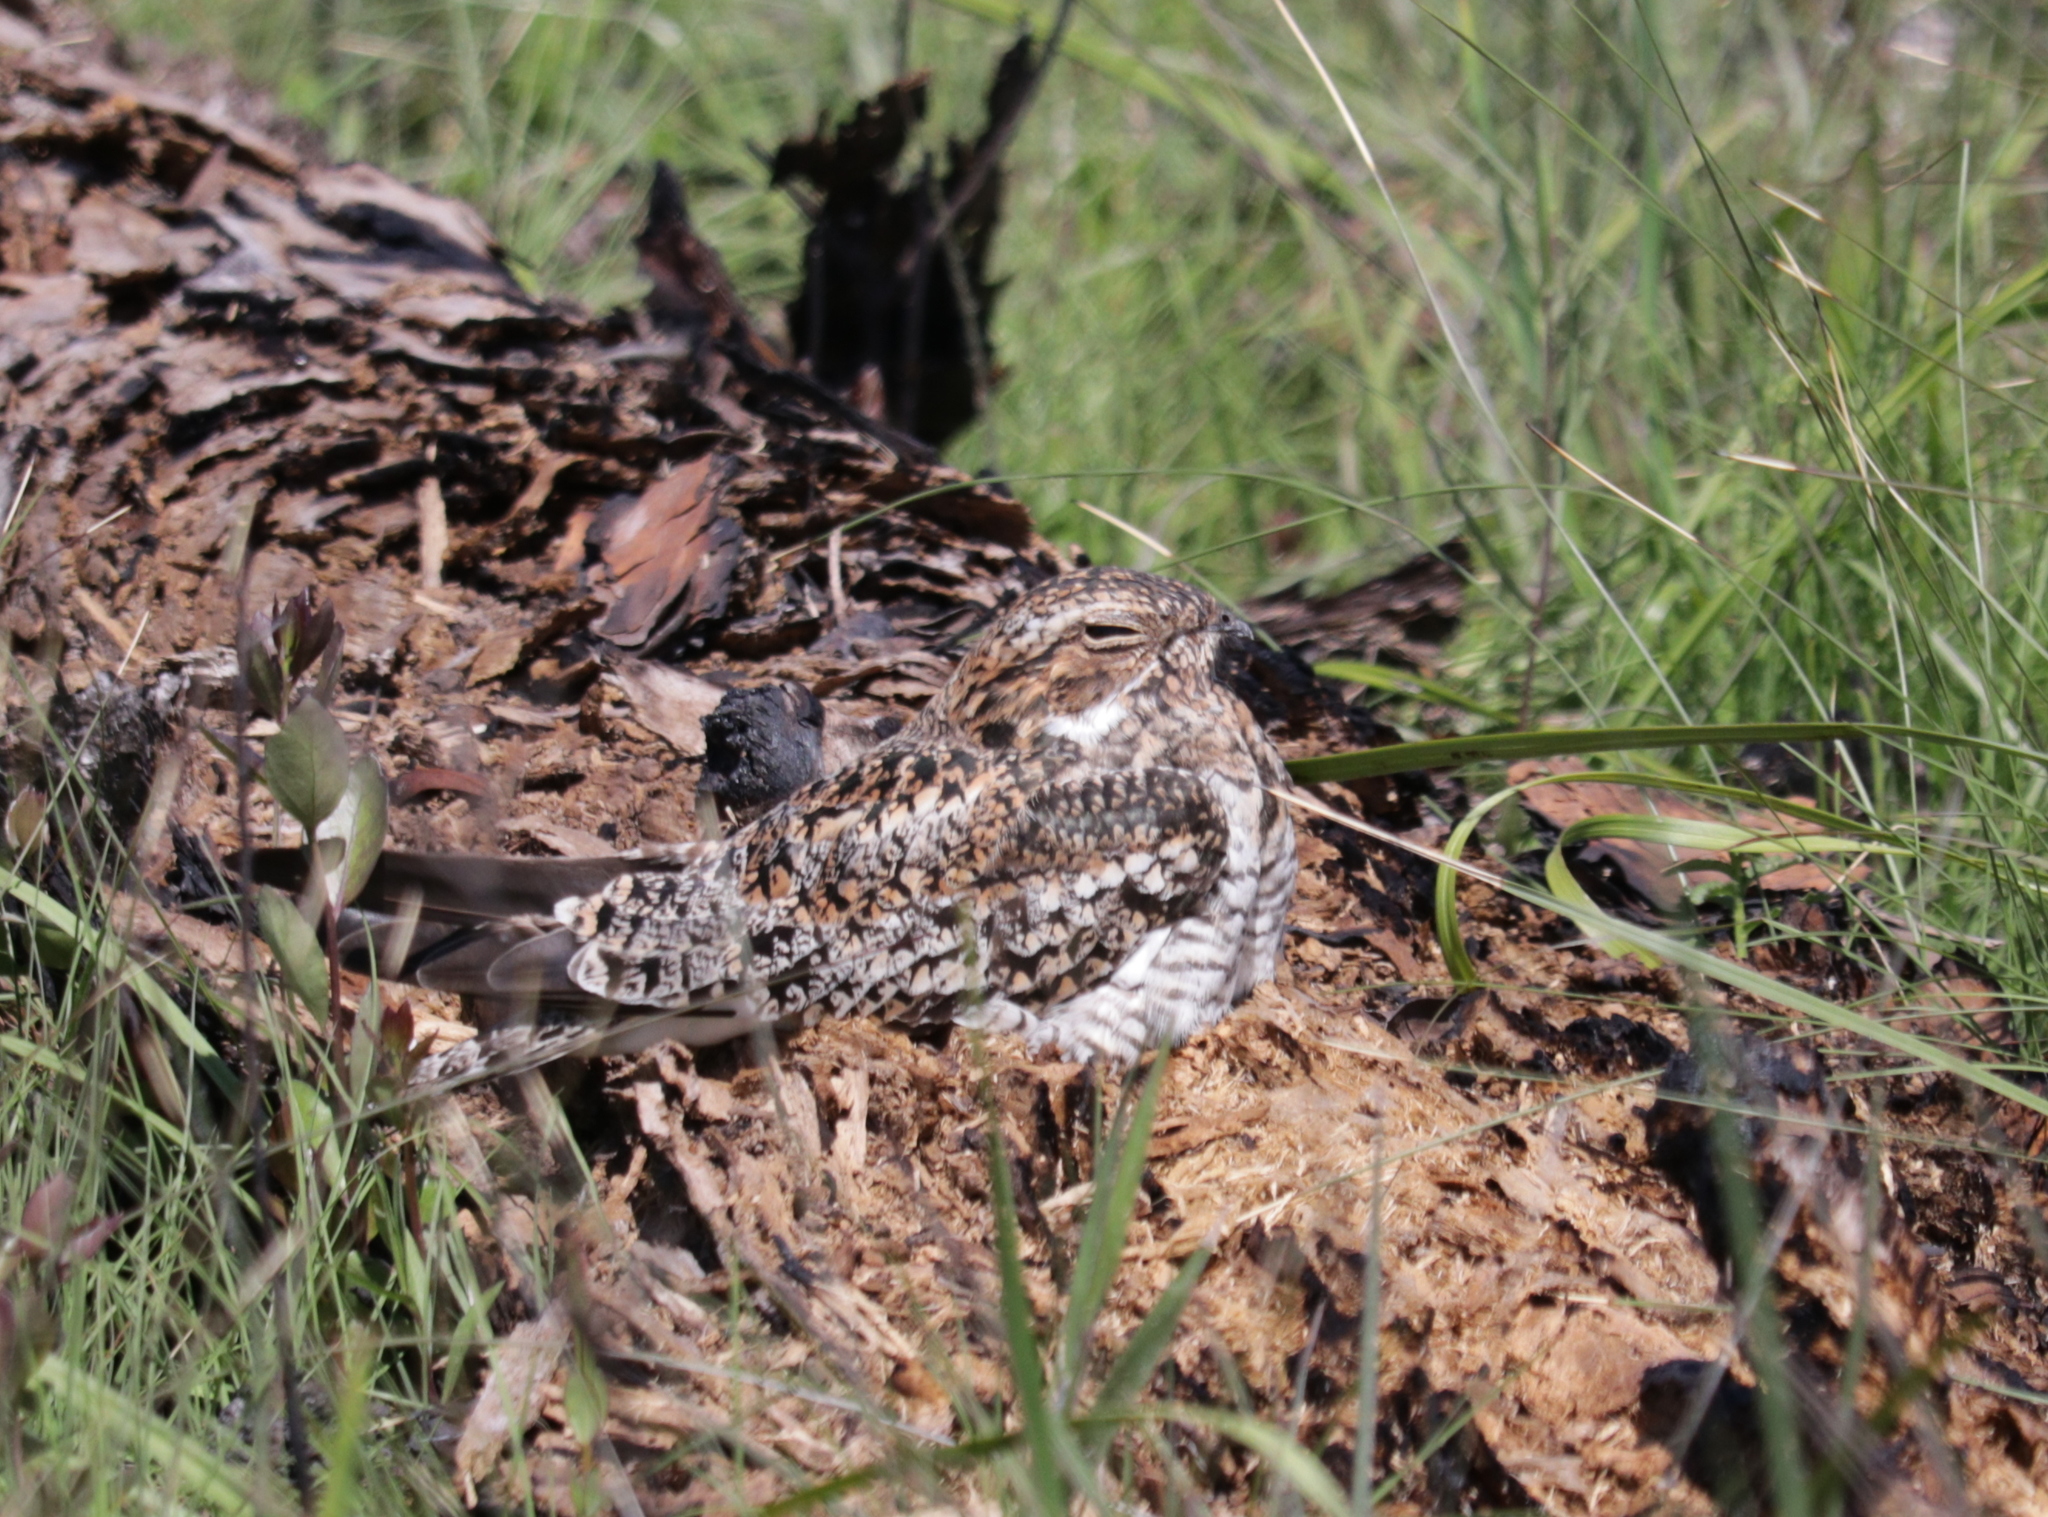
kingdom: Animalia
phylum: Chordata
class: Aves
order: Caprimulgiformes
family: Caprimulgidae
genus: Chordeiles
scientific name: Chordeiles minor
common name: Common nighthawk
